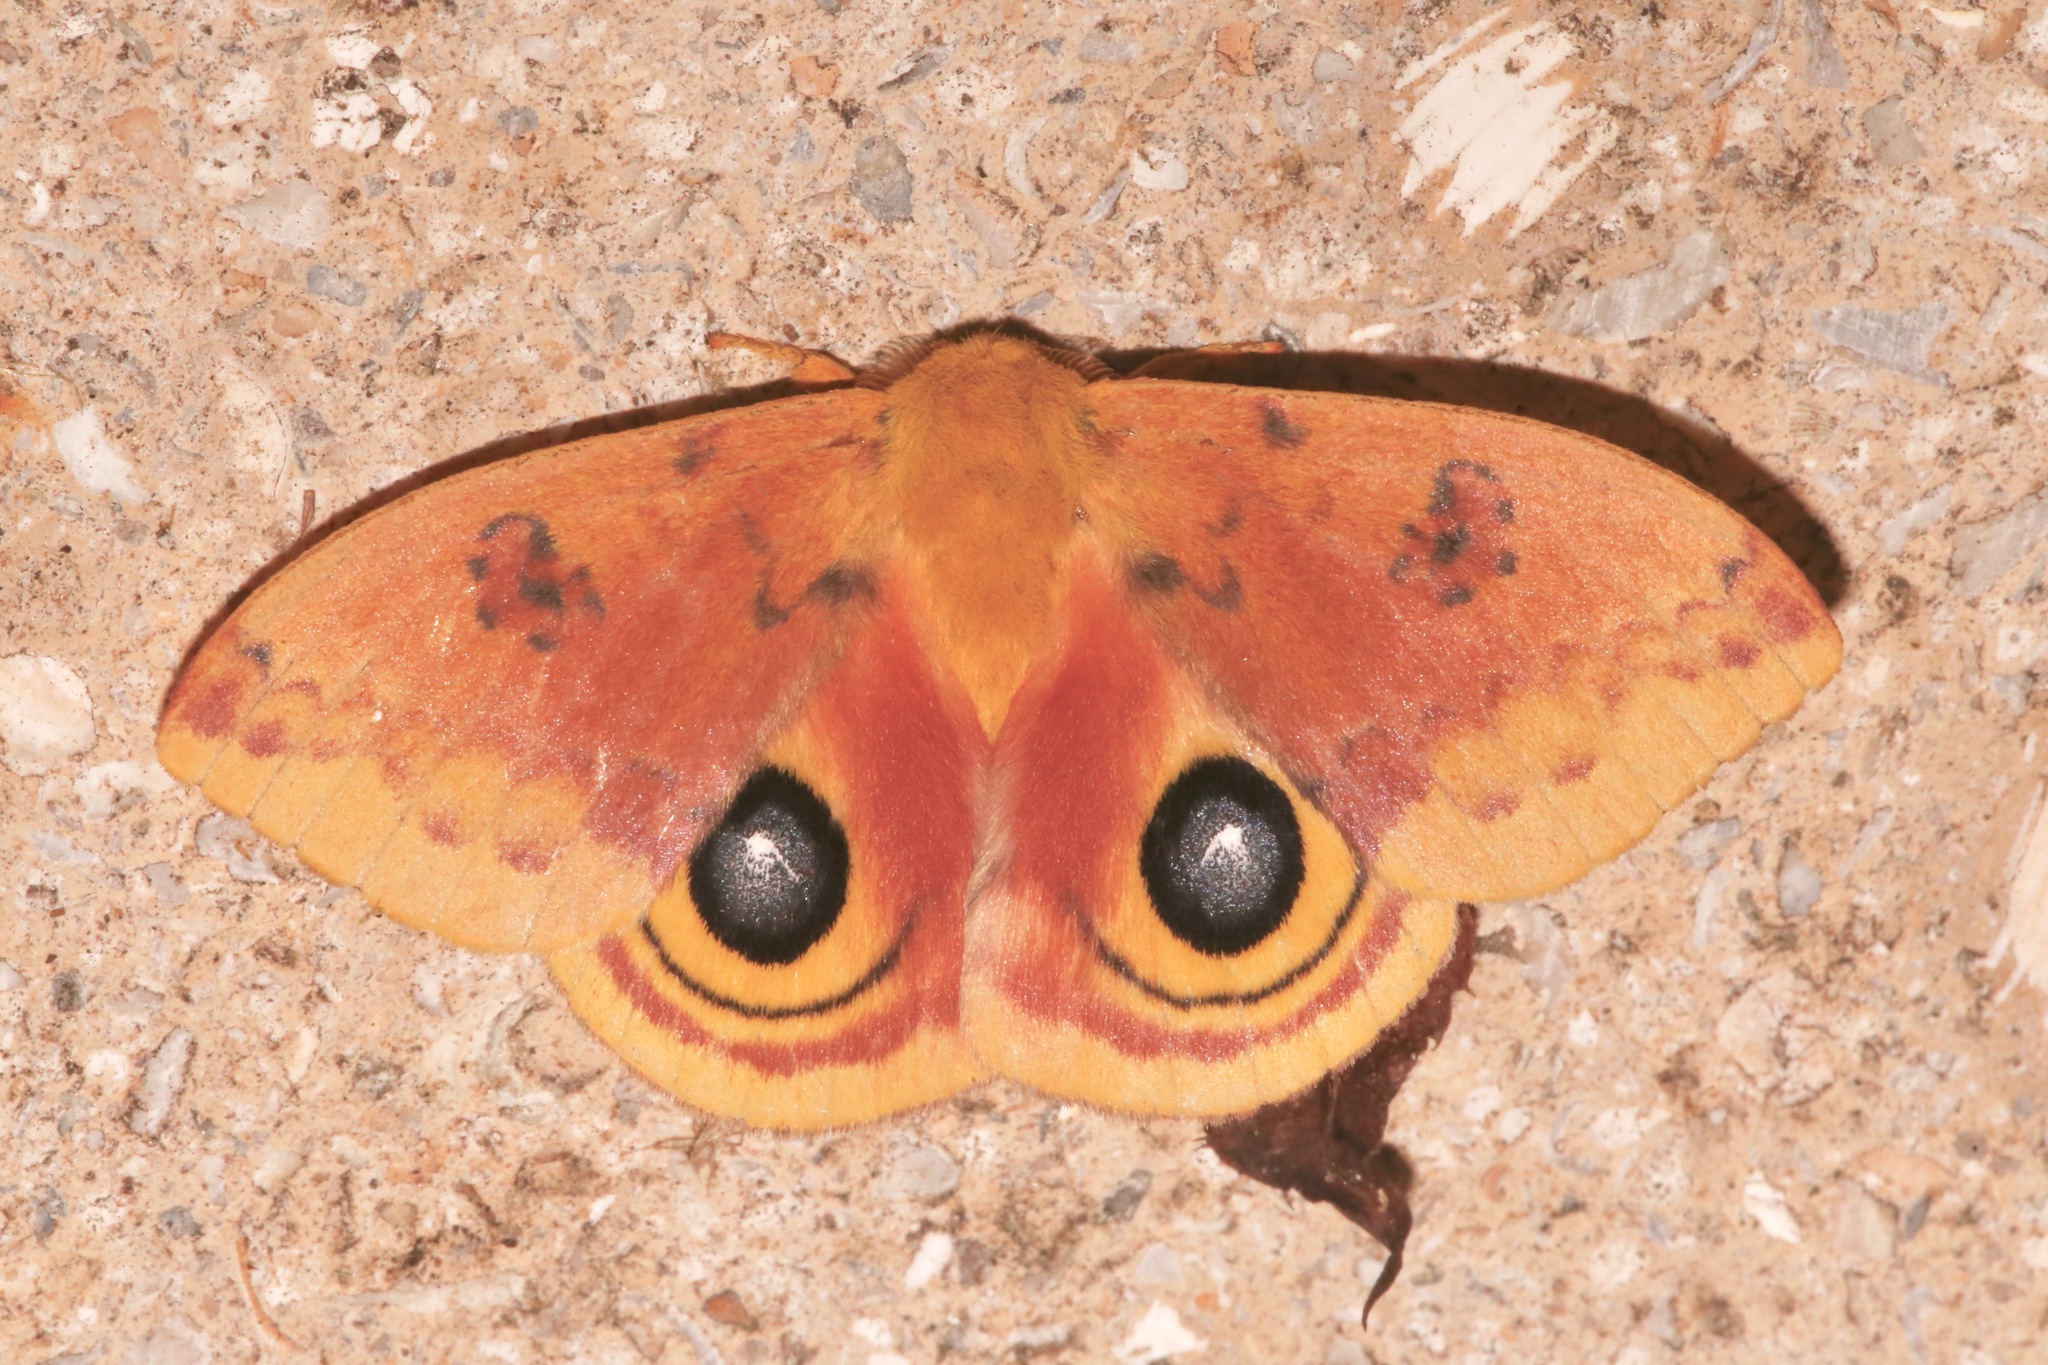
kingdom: Animalia
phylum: Arthropoda
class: Insecta
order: Lepidoptera
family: Saturniidae
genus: Automeris
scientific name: Automeris io
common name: Io moth
